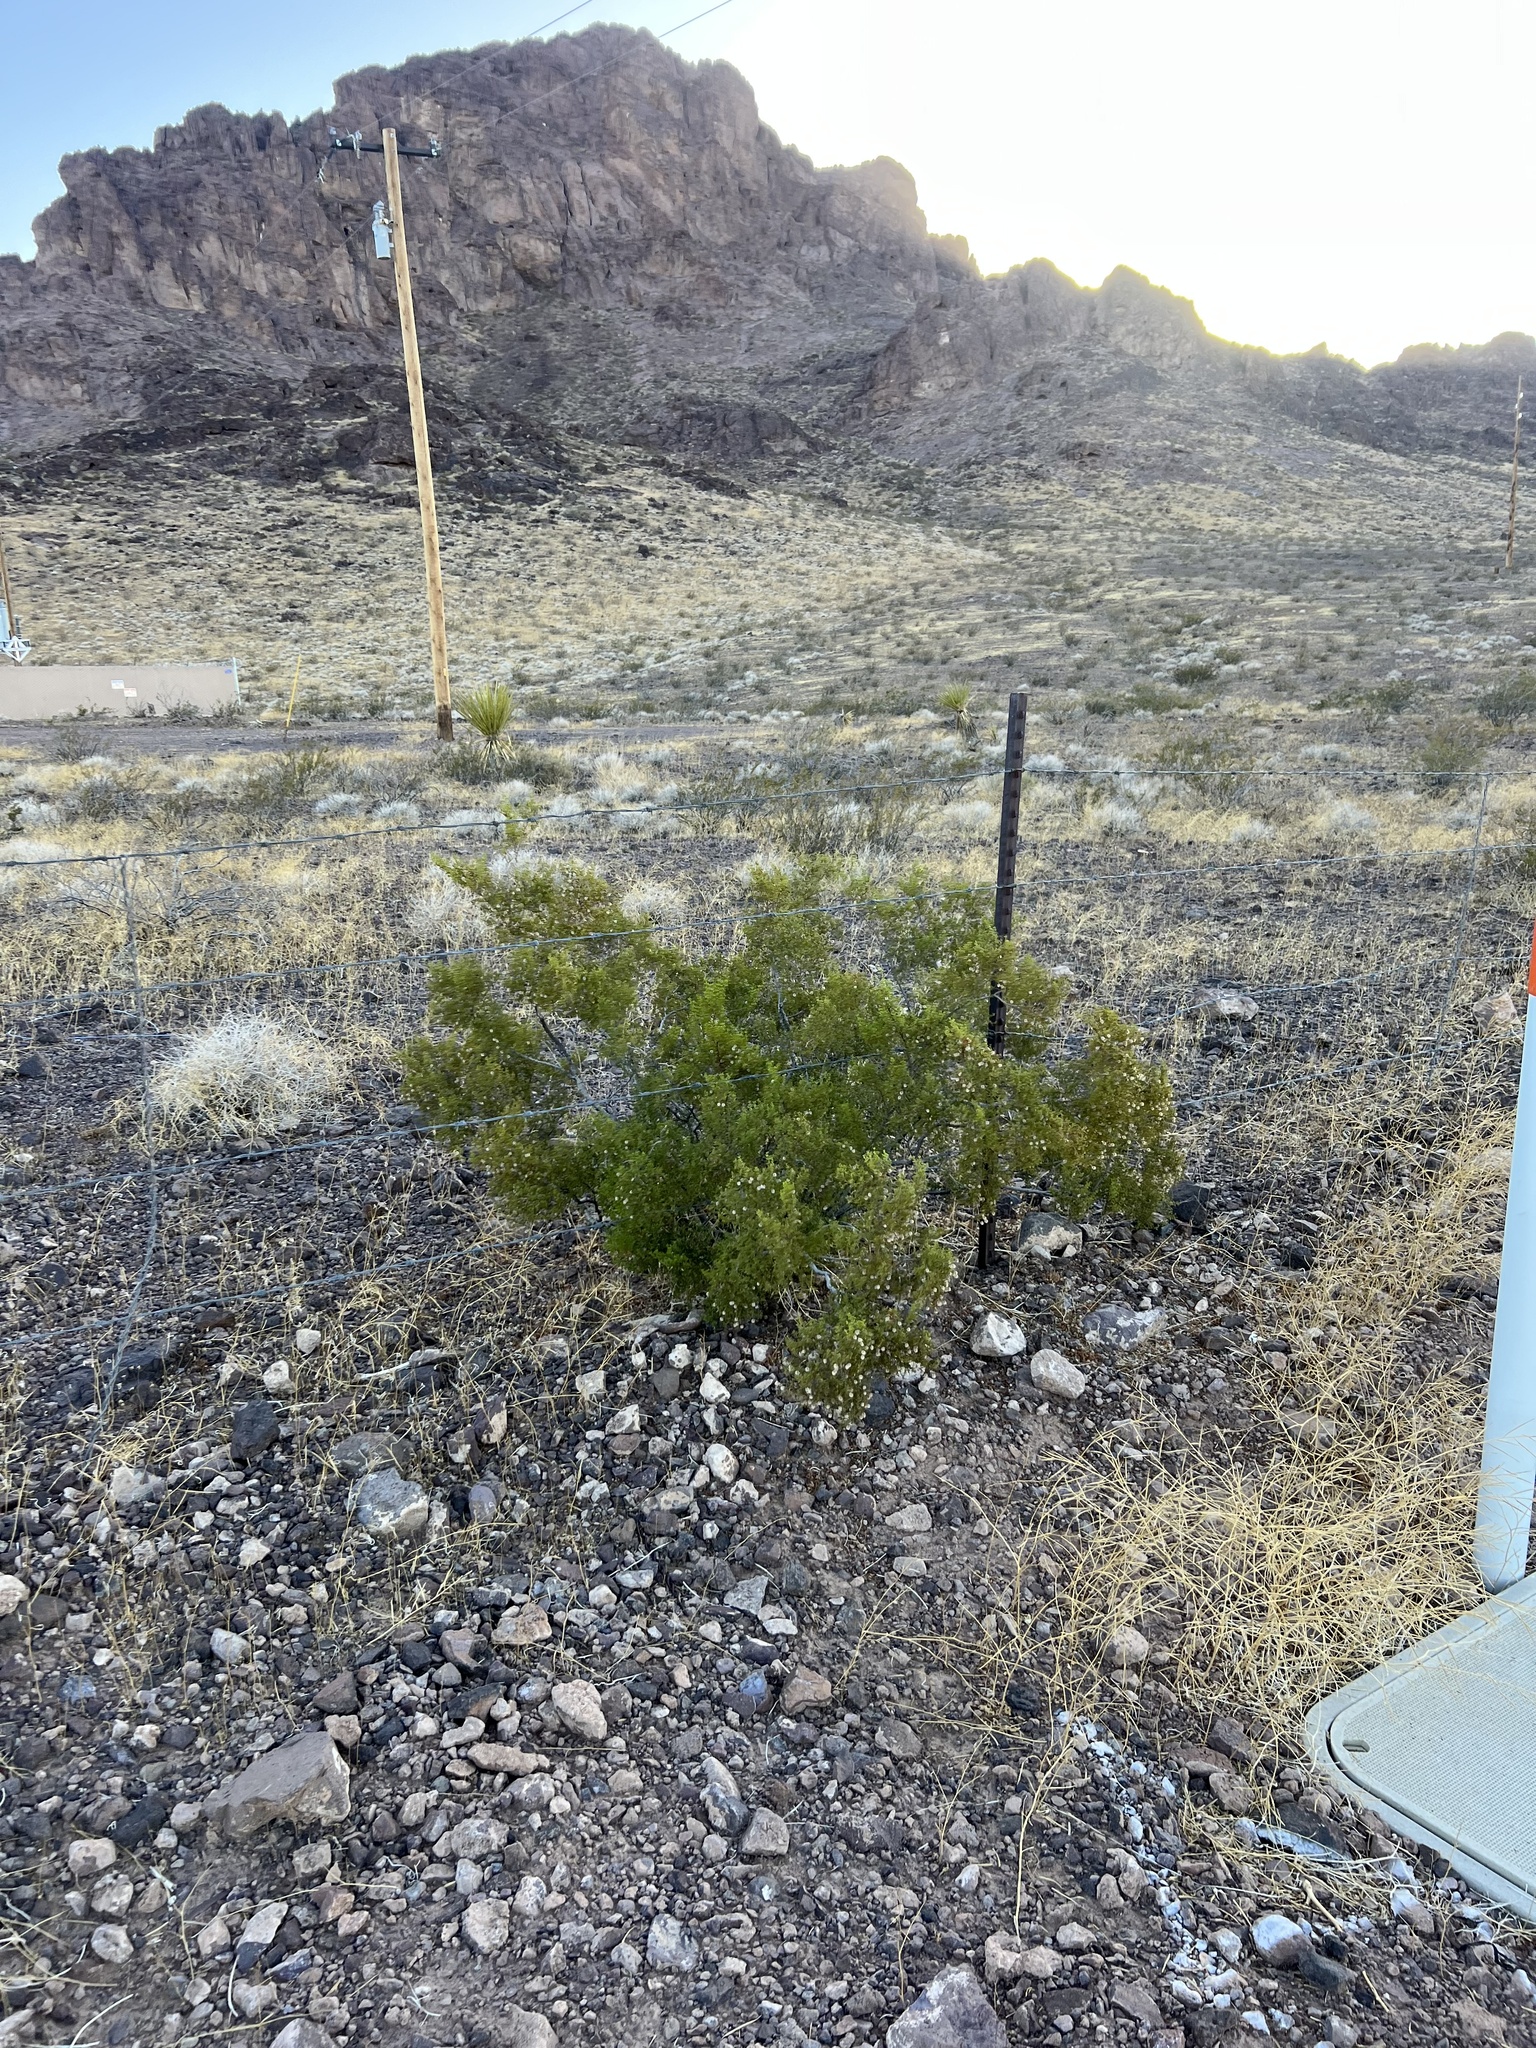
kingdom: Plantae
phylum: Tracheophyta
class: Magnoliopsida
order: Zygophyllales
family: Zygophyllaceae
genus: Larrea
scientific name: Larrea tridentata
